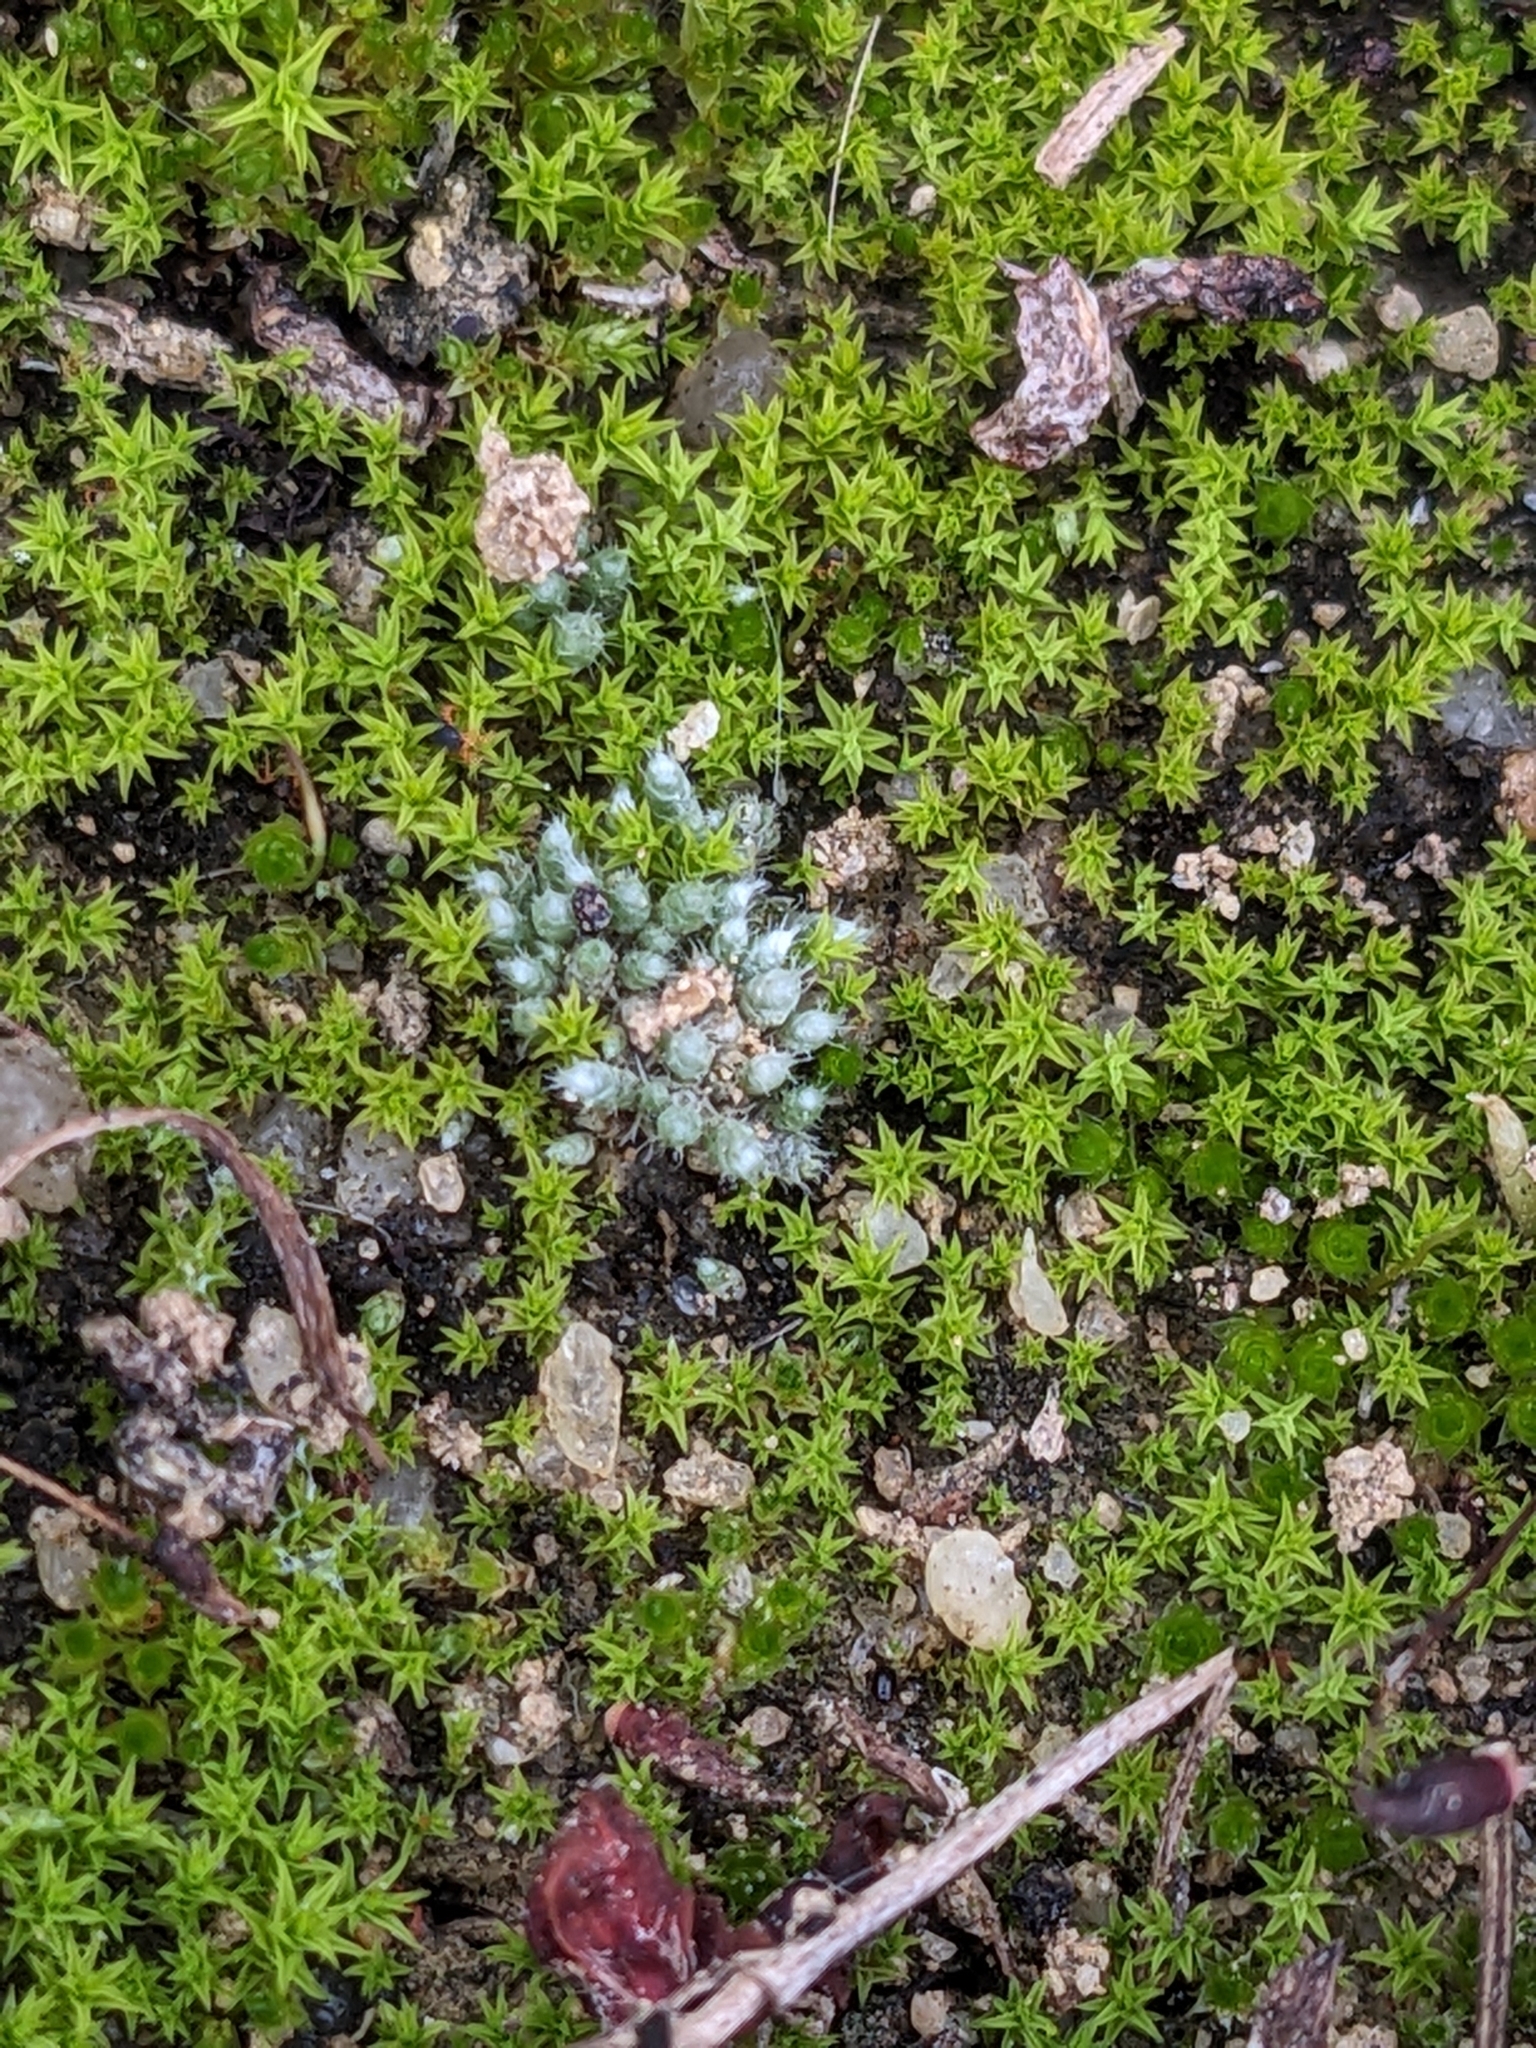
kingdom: Plantae
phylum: Bryophyta
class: Bryopsida
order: Bryales
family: Bryaceae
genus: Bryum
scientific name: Bryum argenteum
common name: Silver-moss
